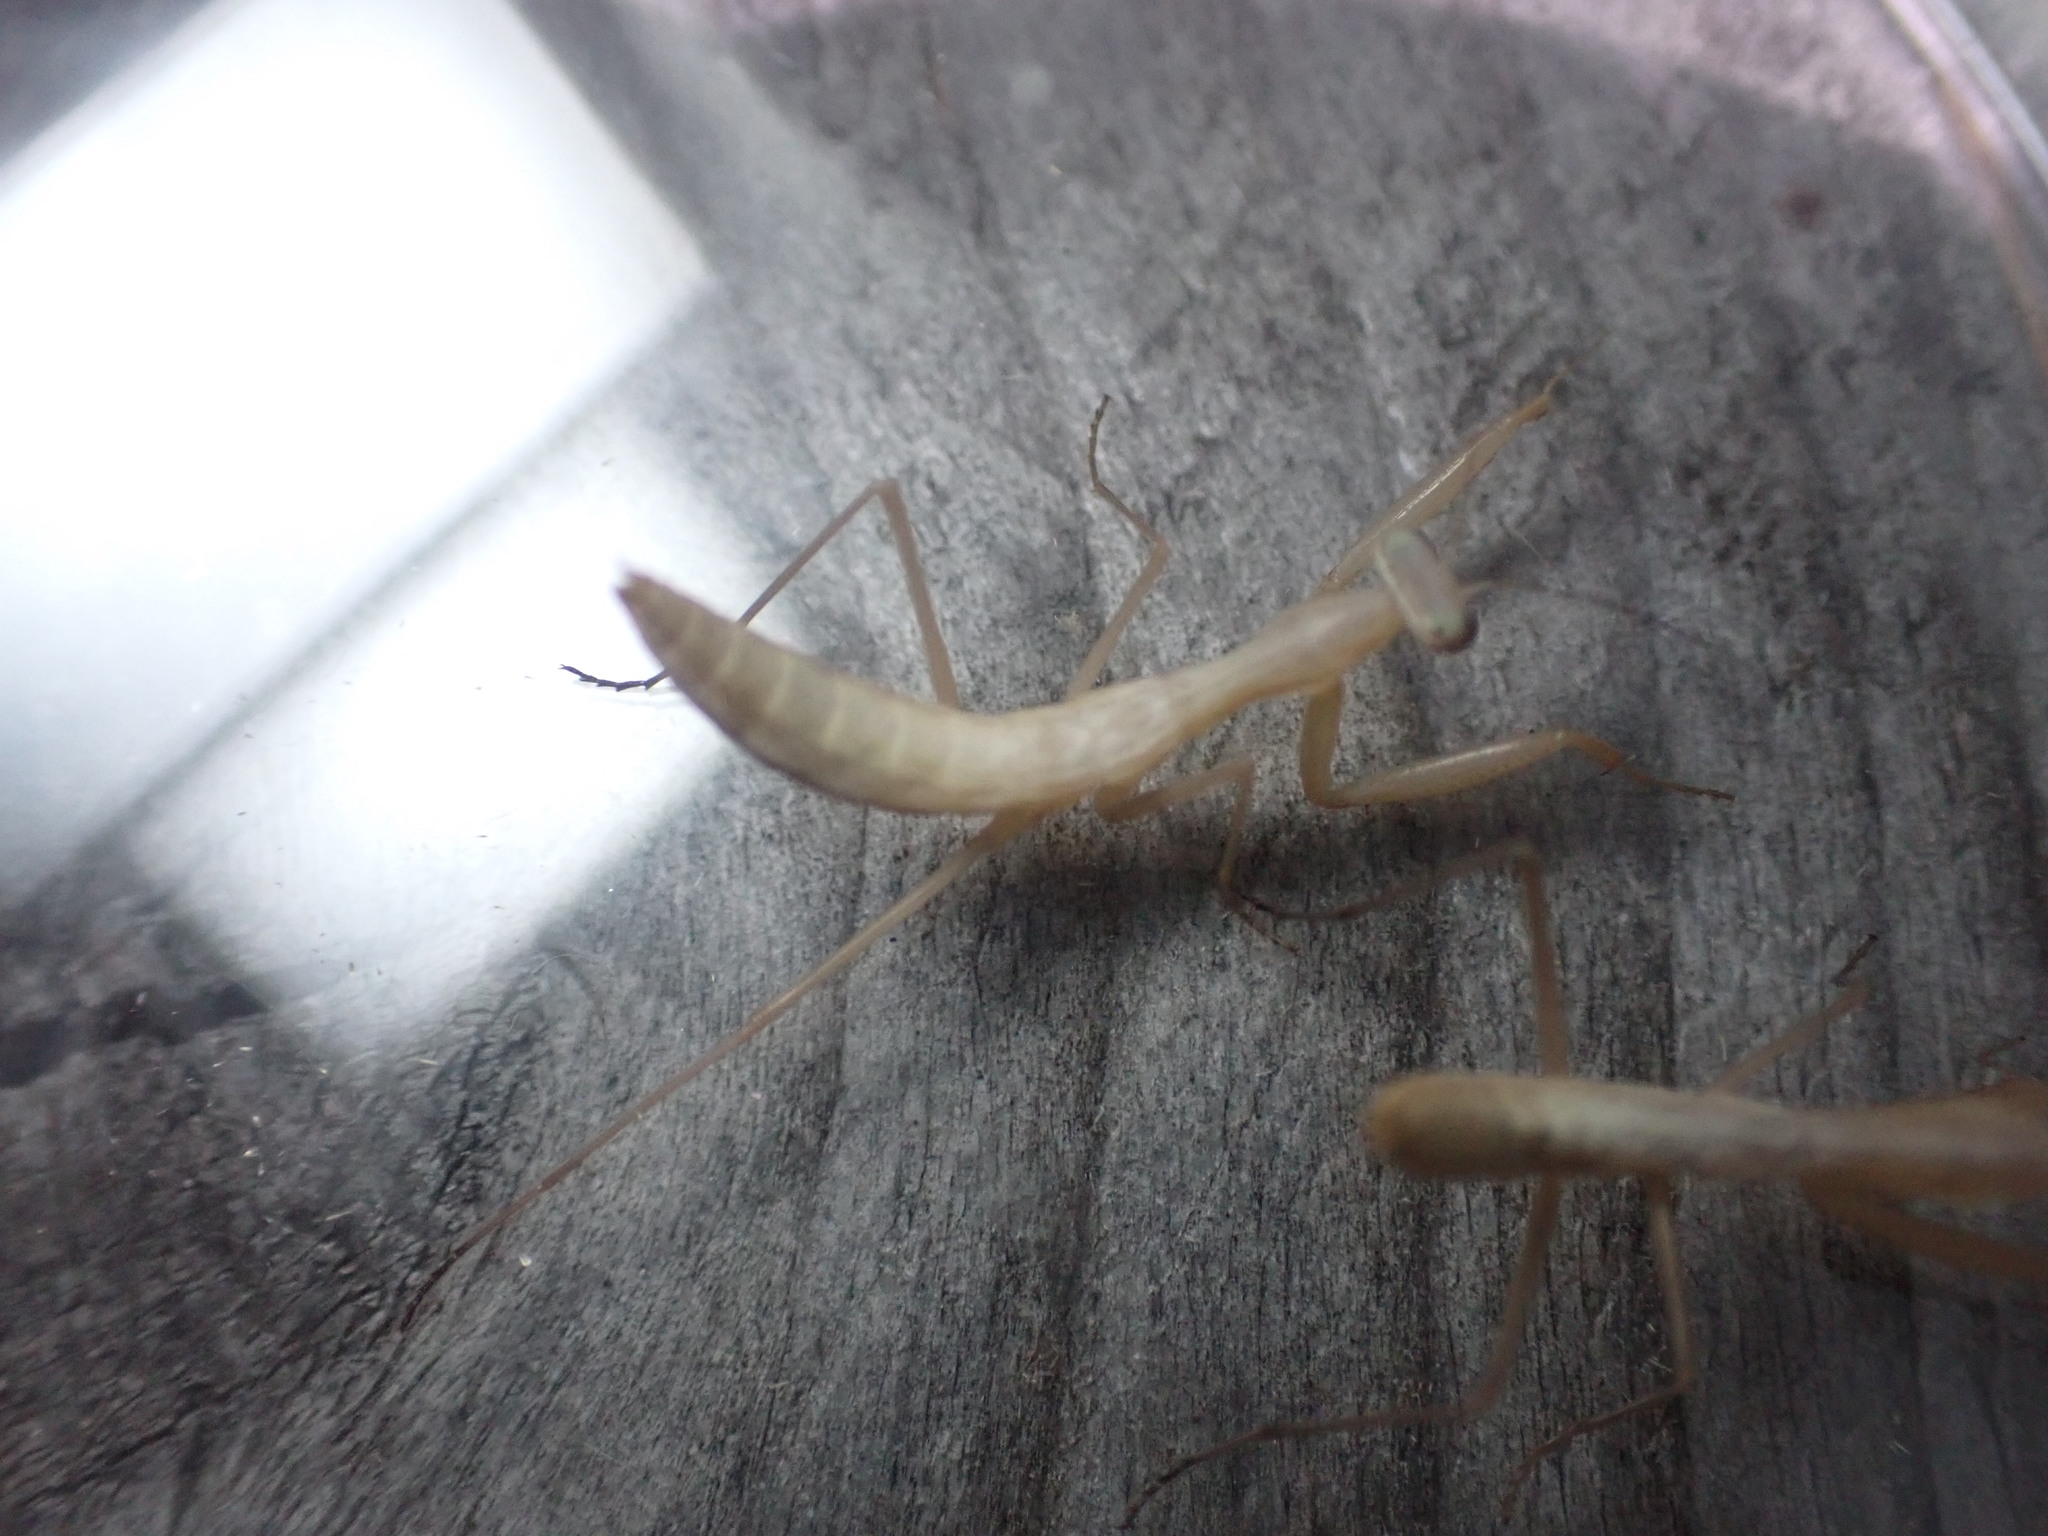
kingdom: Animalia
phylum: Arthropoda
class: Insecta
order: Mantodea
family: Mantidae
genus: Mantis
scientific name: Mantis religiosa
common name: Praying mantis
